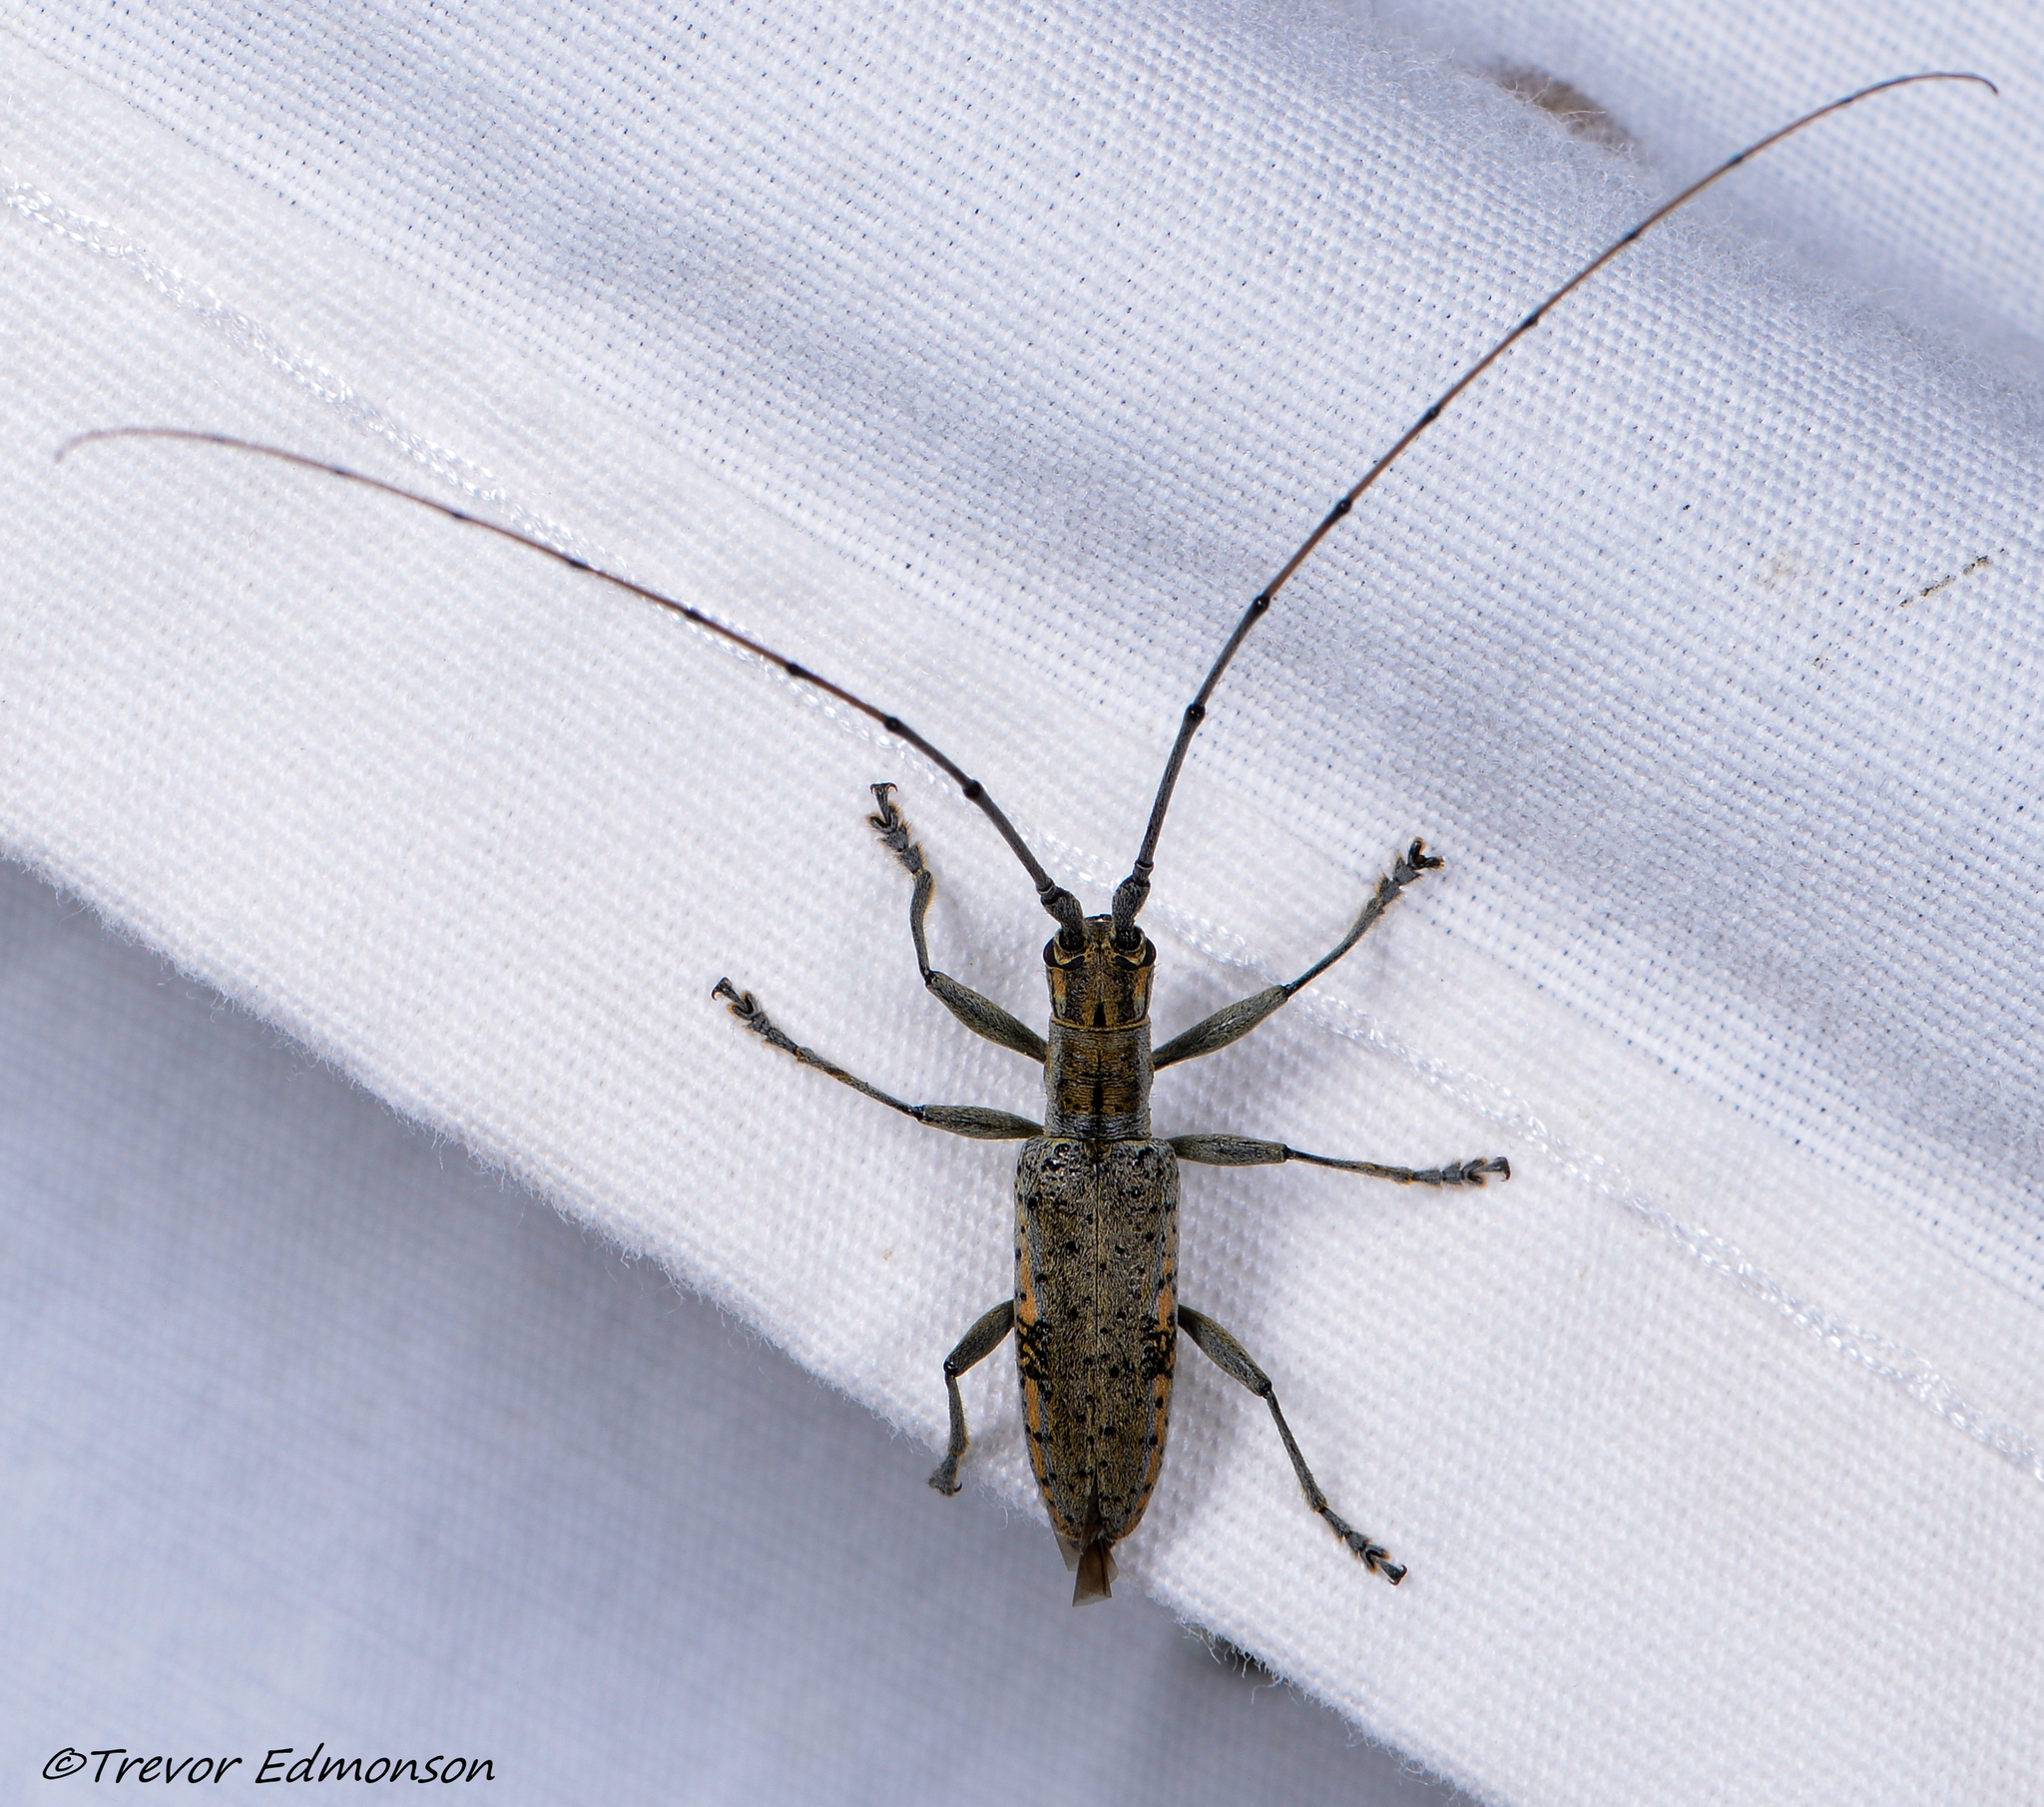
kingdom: Animalia
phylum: Arthropoda
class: Insecta
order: Coleoptera
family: Cerambycidae
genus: Dorcaschema
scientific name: Dorcaschema wildii
